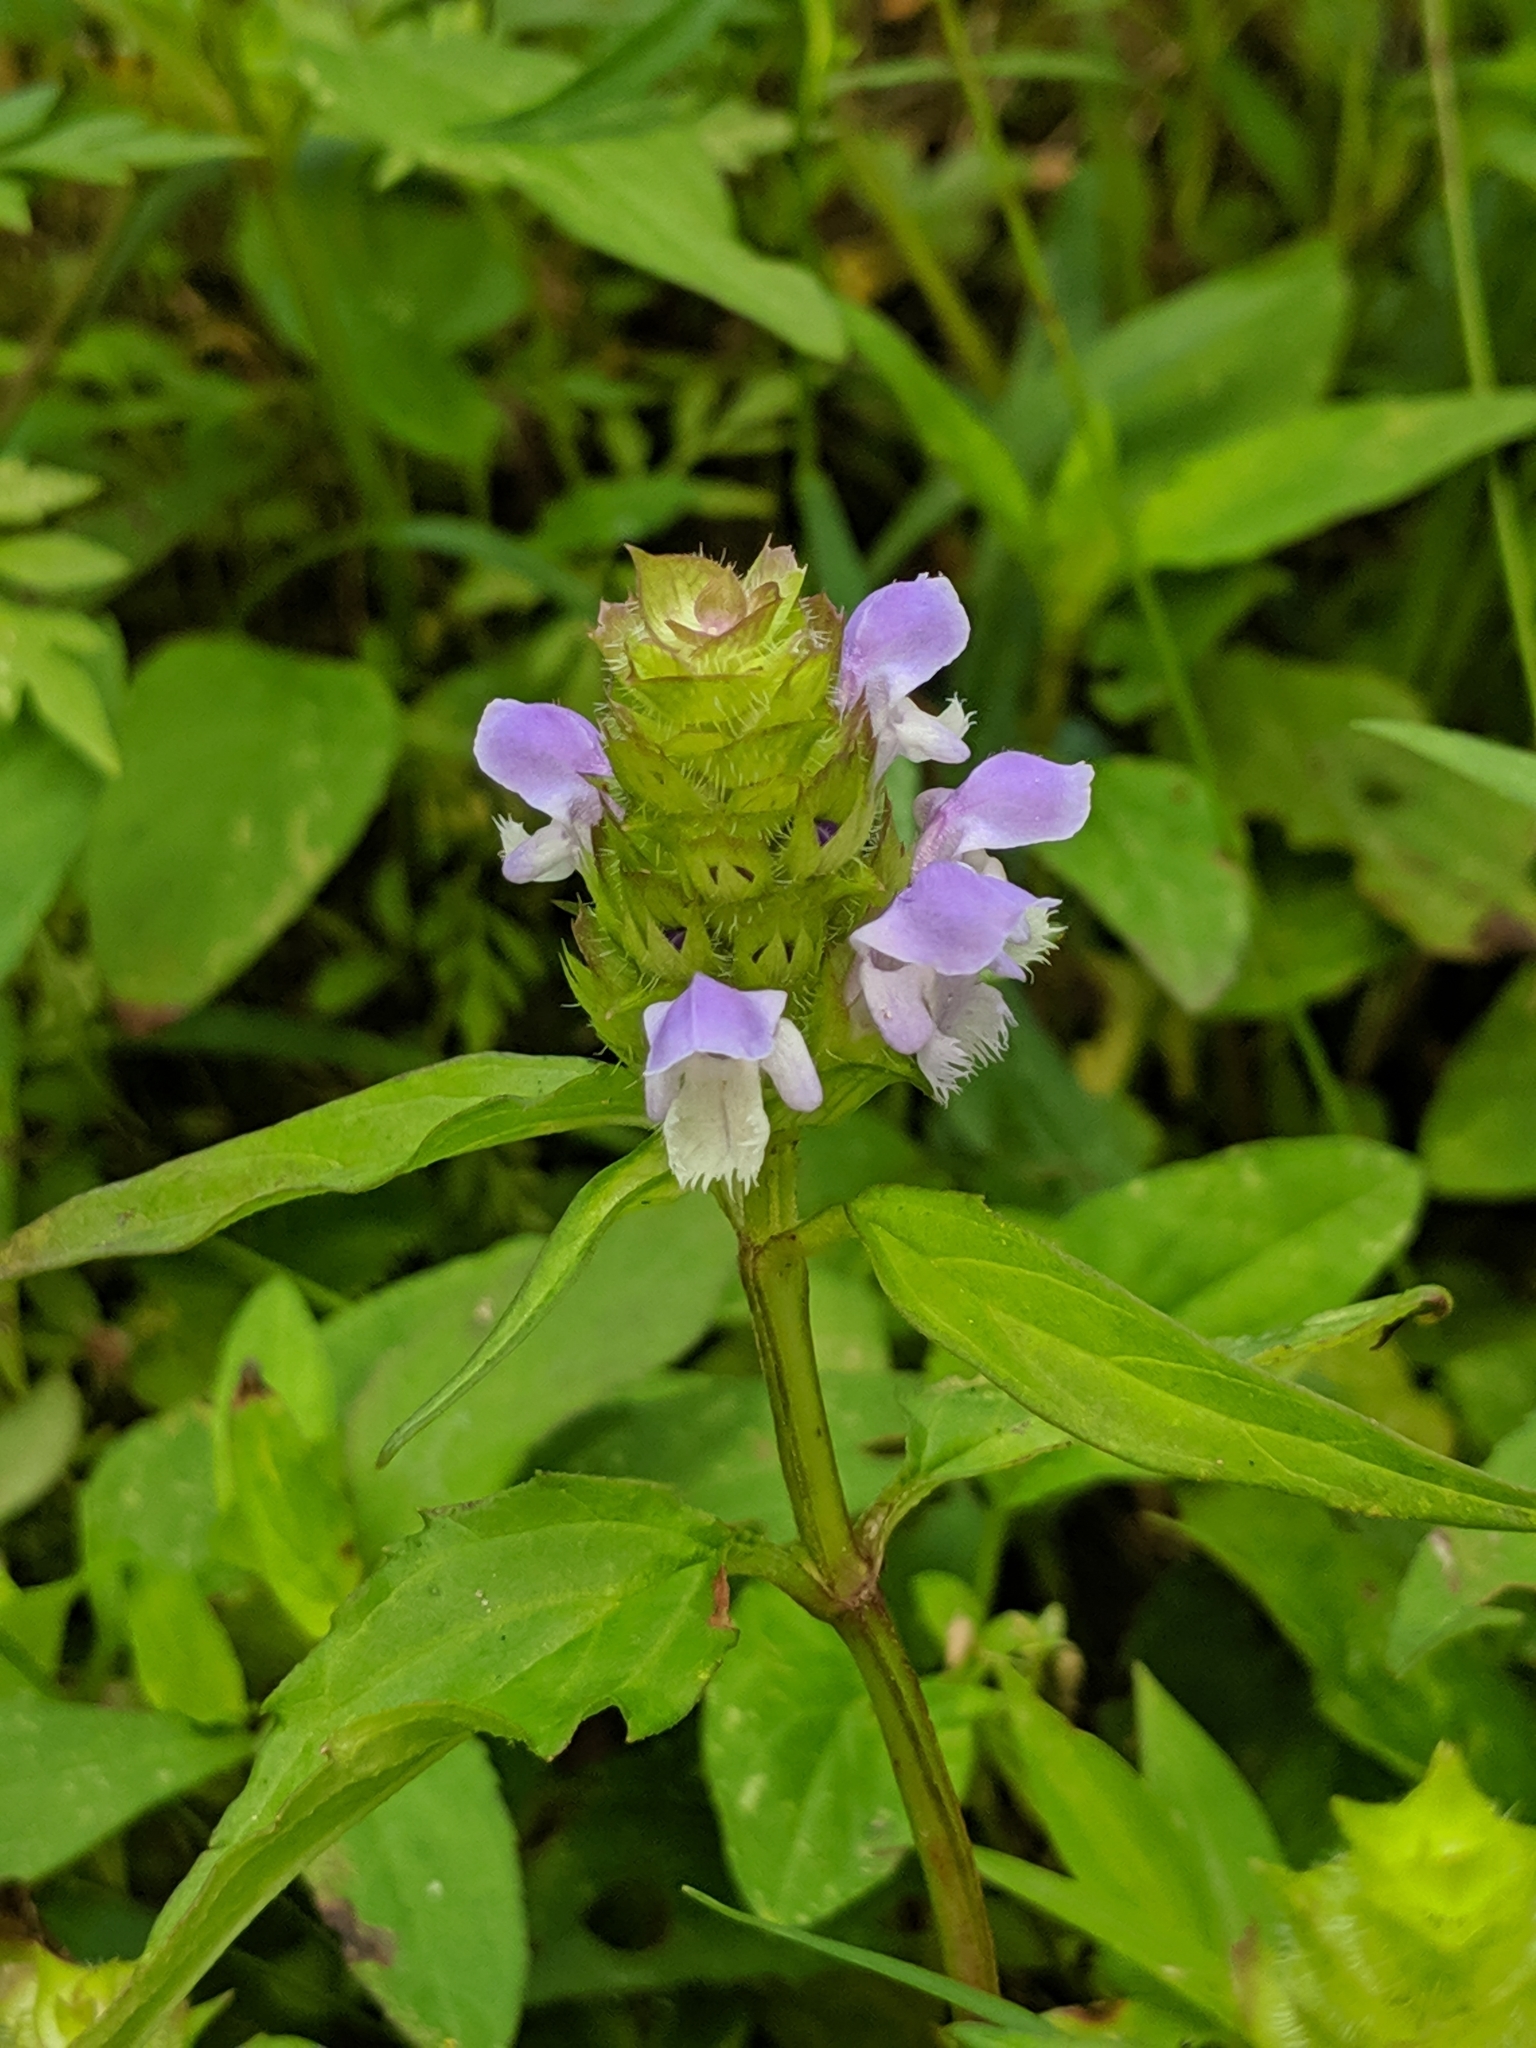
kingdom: Plantae
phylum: Tracheophyta
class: Magnoliopsida
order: Lamiales
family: Lamiaceae
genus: Prunella
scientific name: Prunella vulgaris
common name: Heal-all
